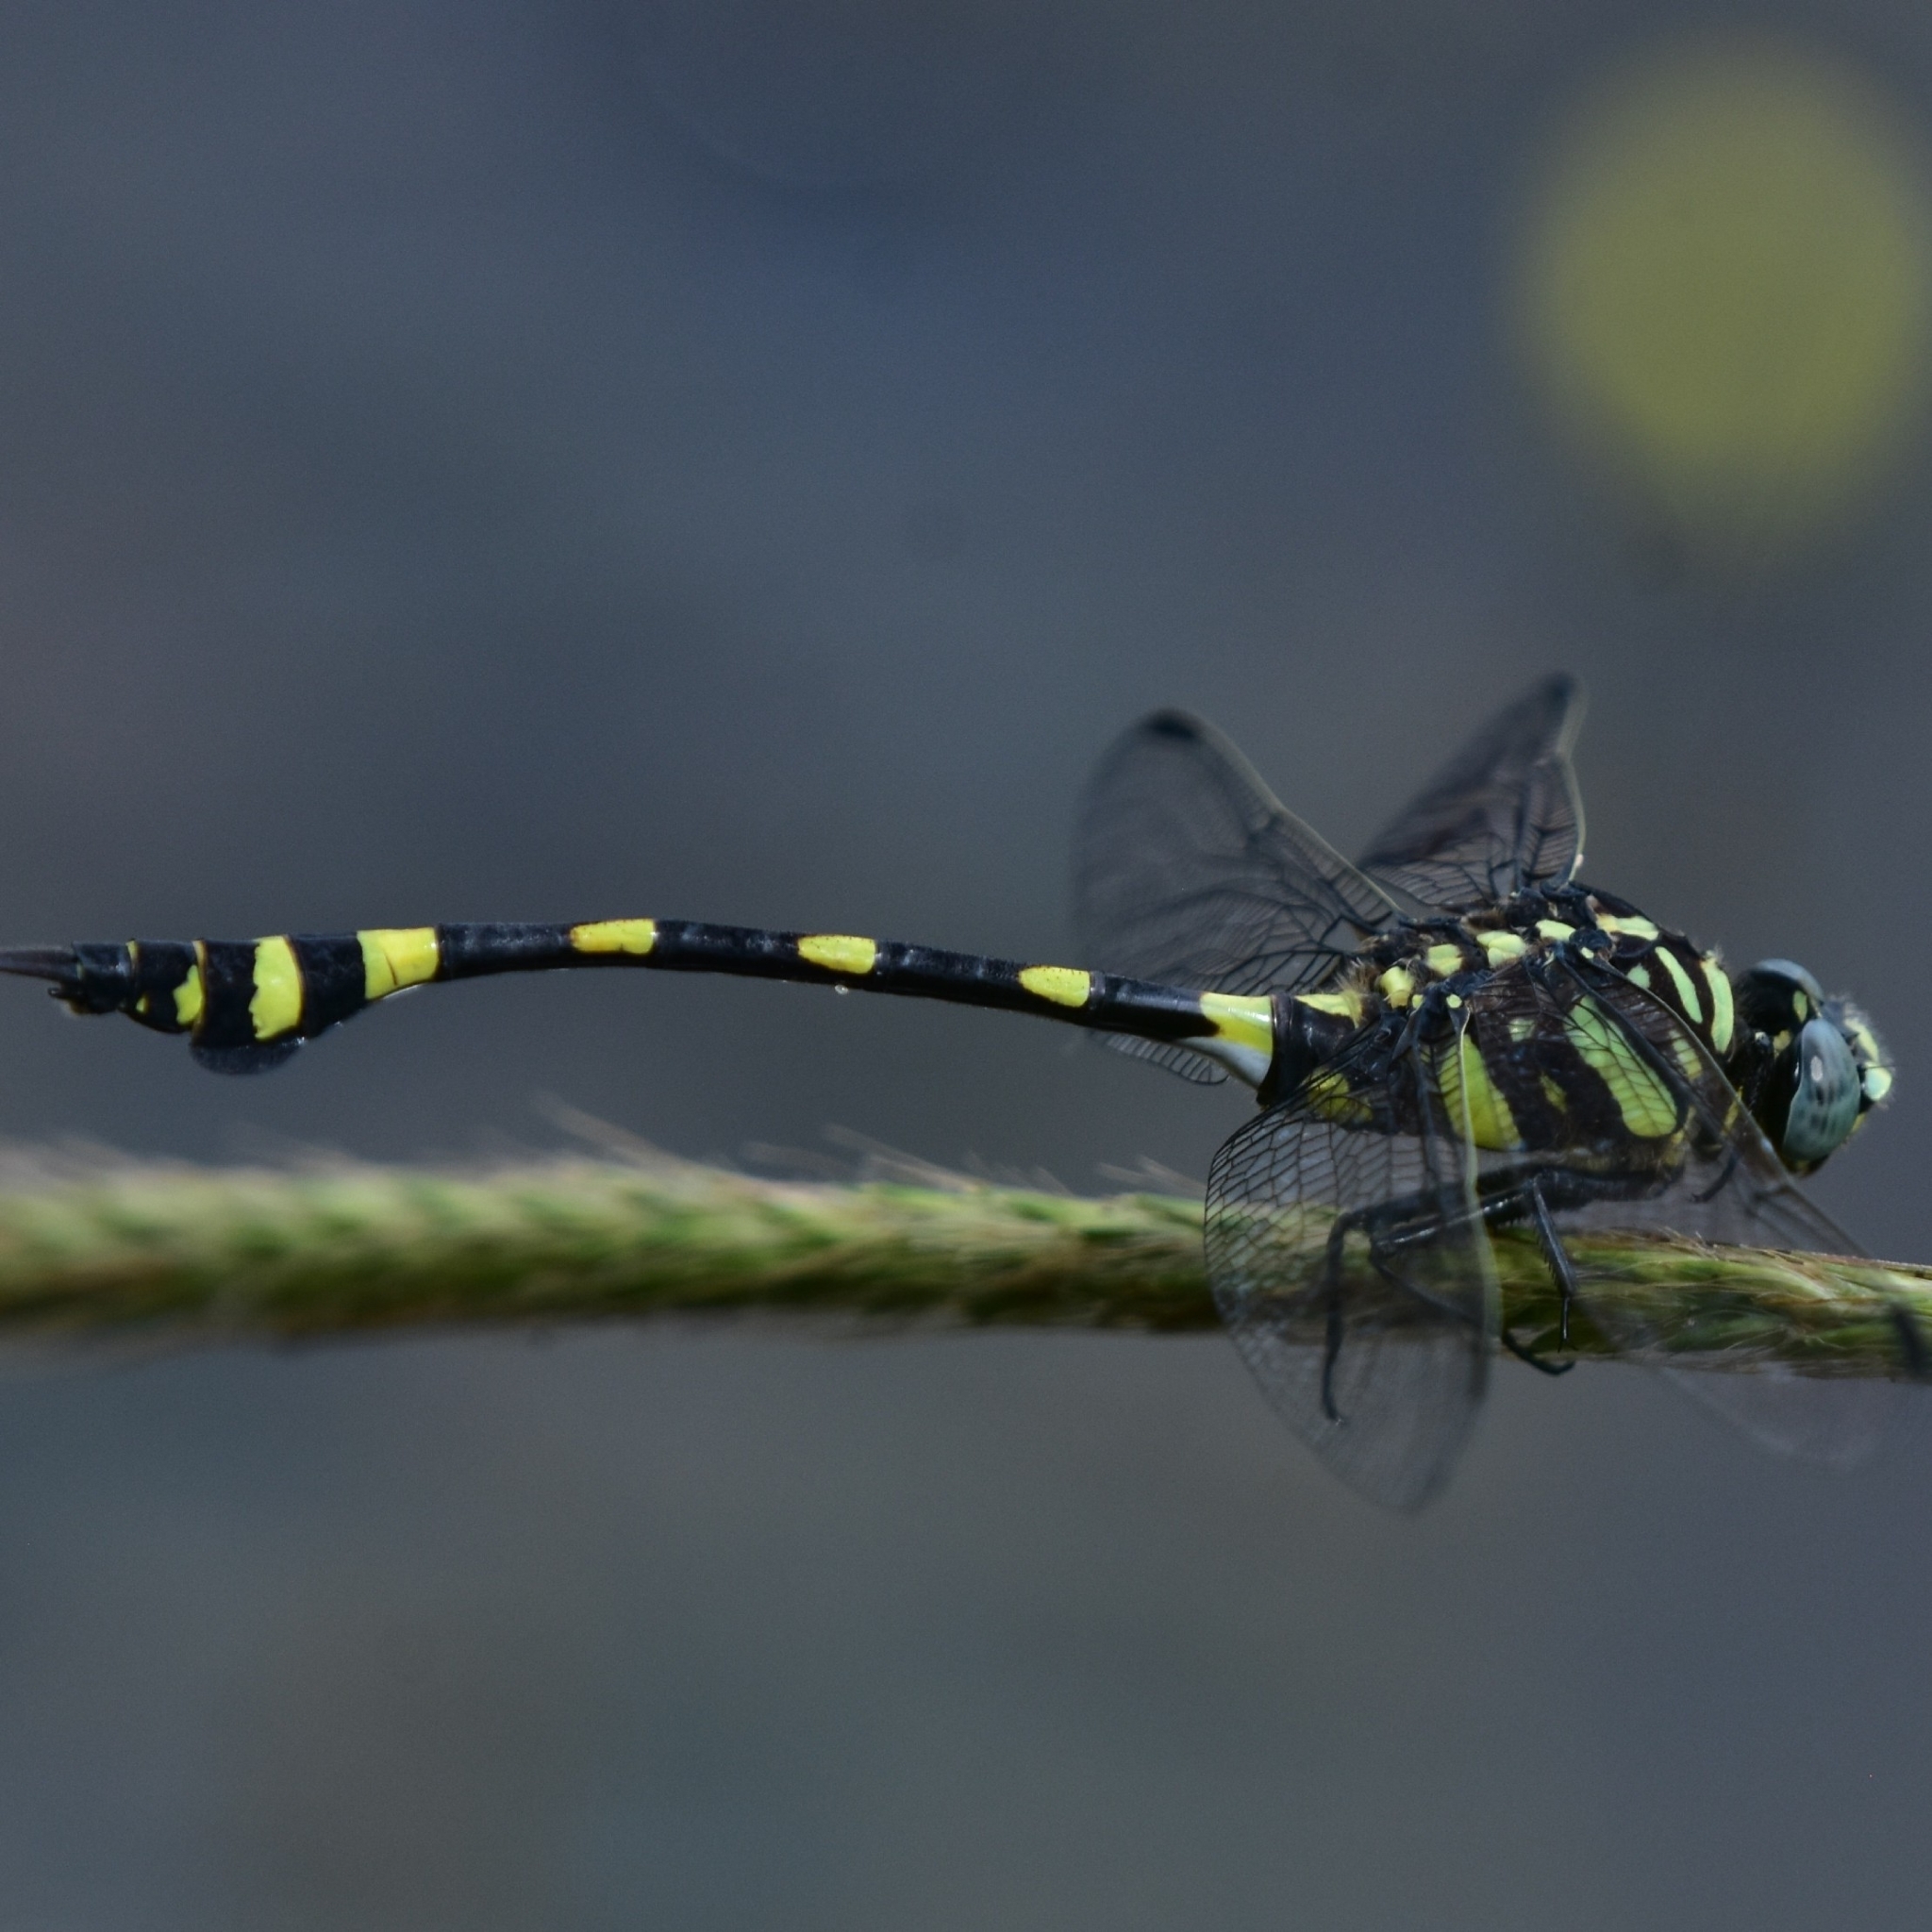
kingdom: Animalia
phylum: Arthropoda
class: Insecta
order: Odonata
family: Gomphidae
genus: Ictinogomphus
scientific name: Ictinogomphus rapax
